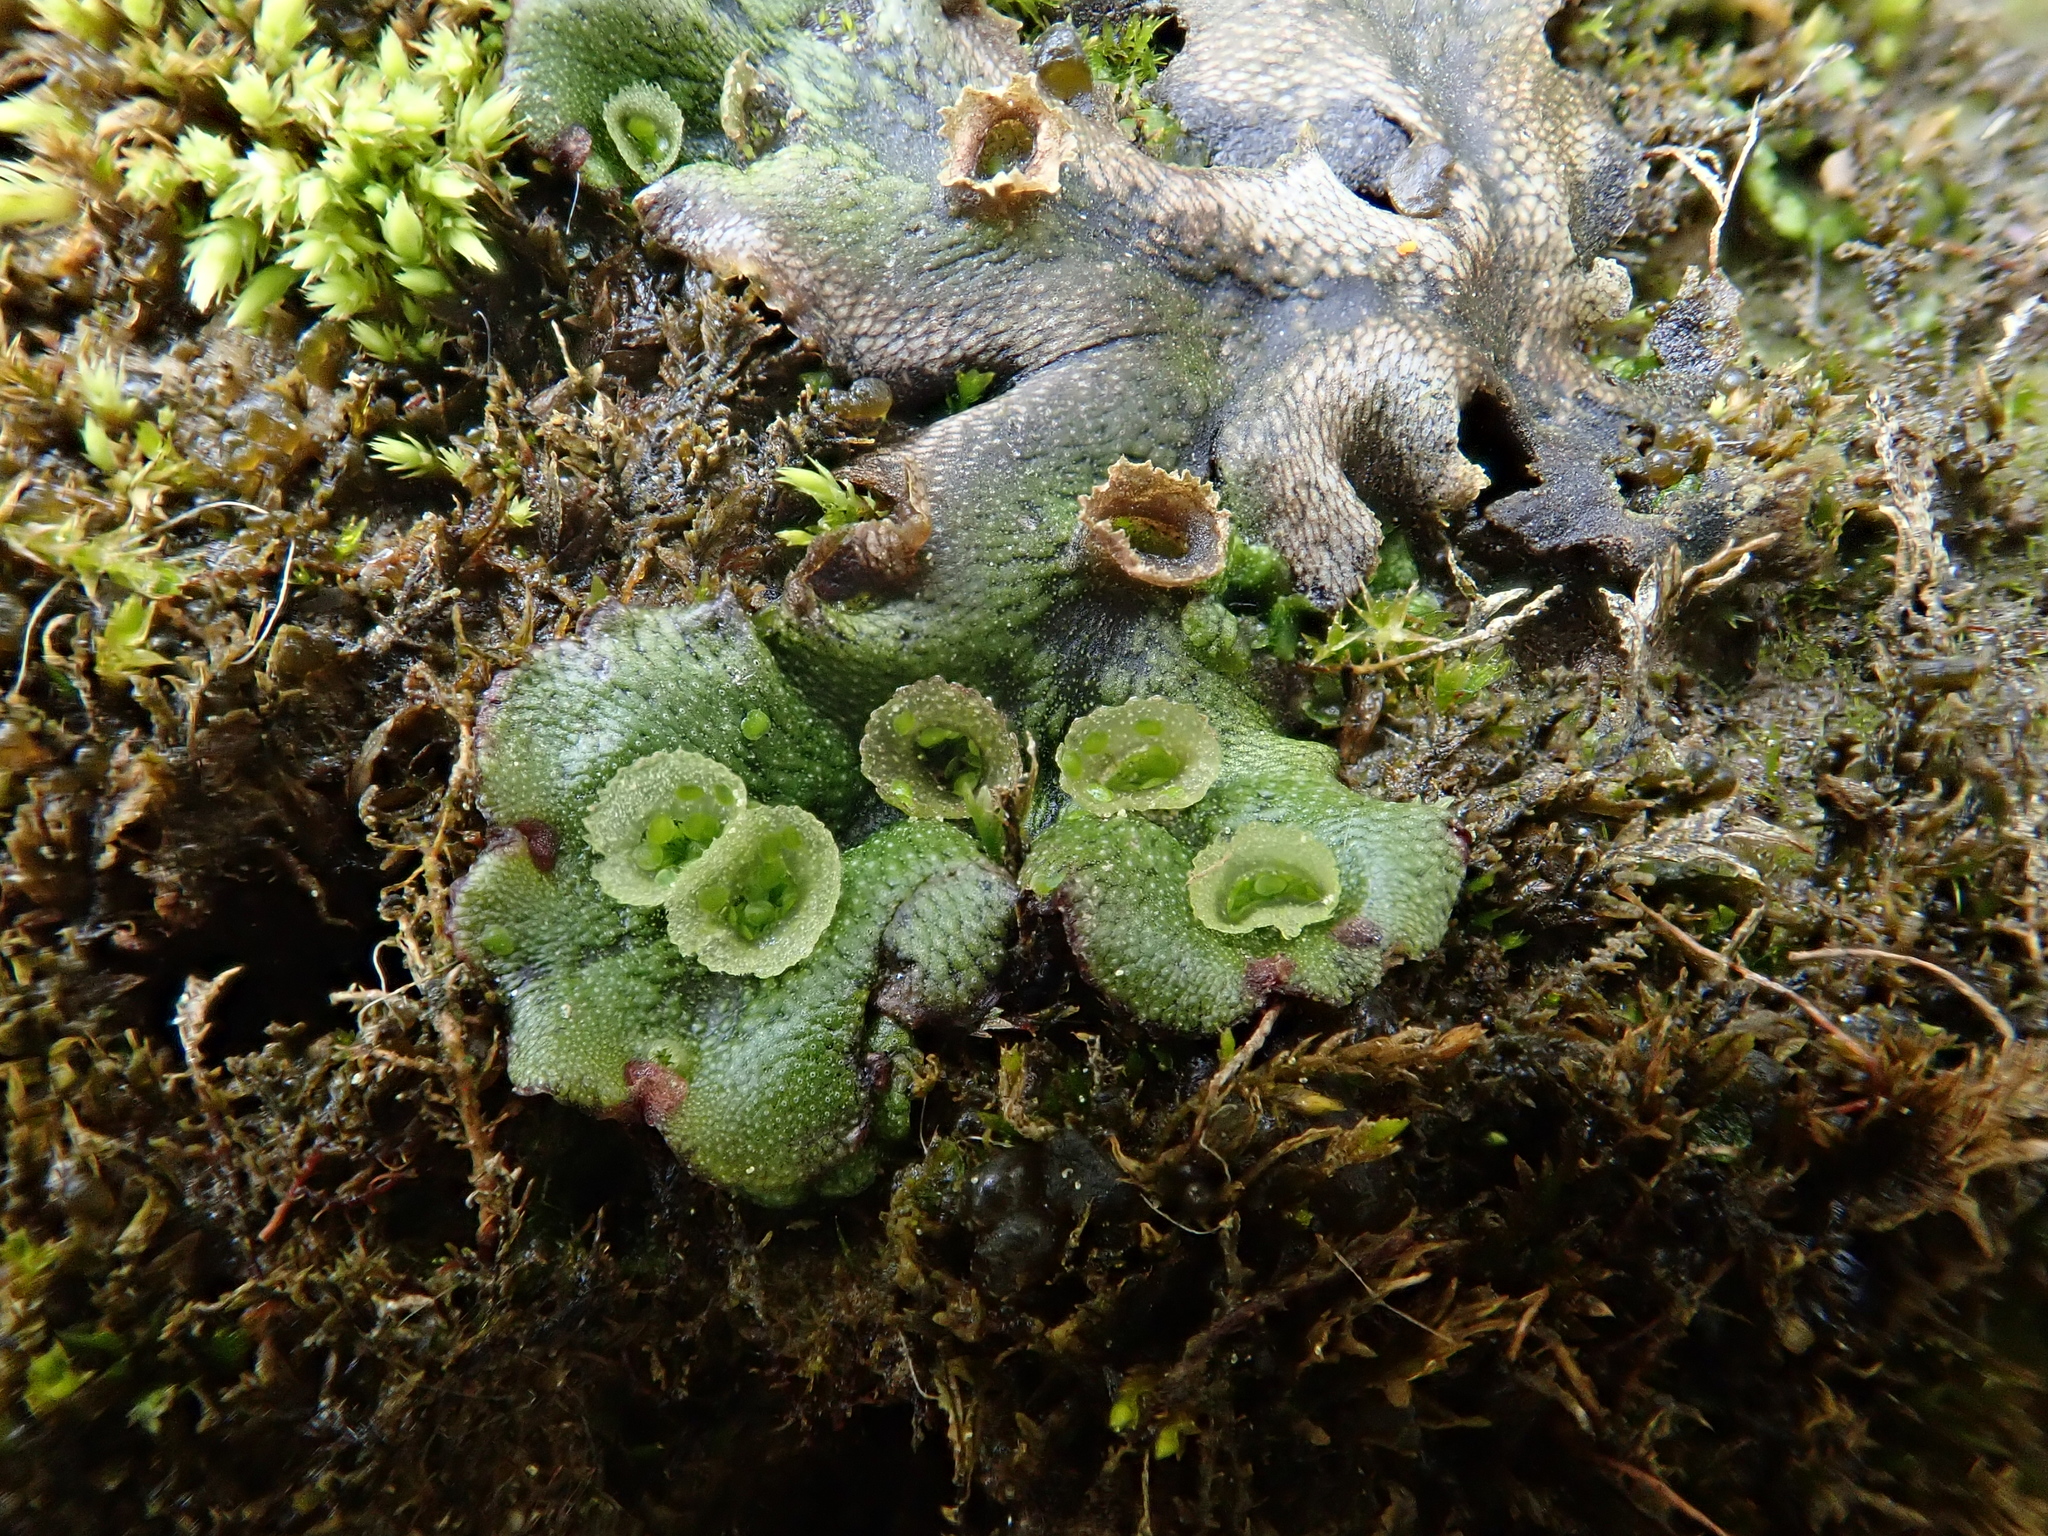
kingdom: Plantae
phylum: Marchantiophyta
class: Marchantiopsida
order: Marchantiales
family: Marchantiaceae
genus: Marchantia
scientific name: Marchantia polymorpha
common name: Common liverwort
